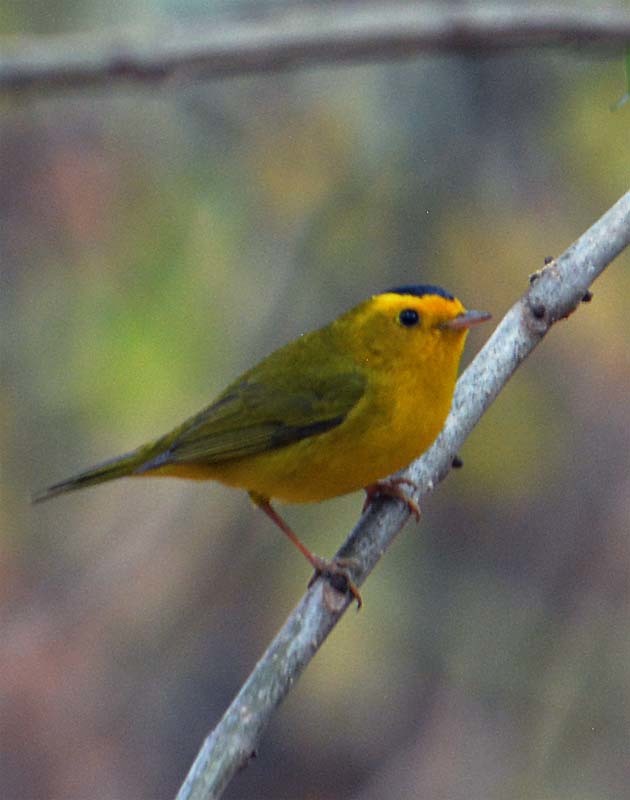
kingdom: Animalia
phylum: Chordata
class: Aves
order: Passeriformes
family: Parulidae
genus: Cardellina
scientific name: Cardellina pusilla
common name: Wilson's warbler
